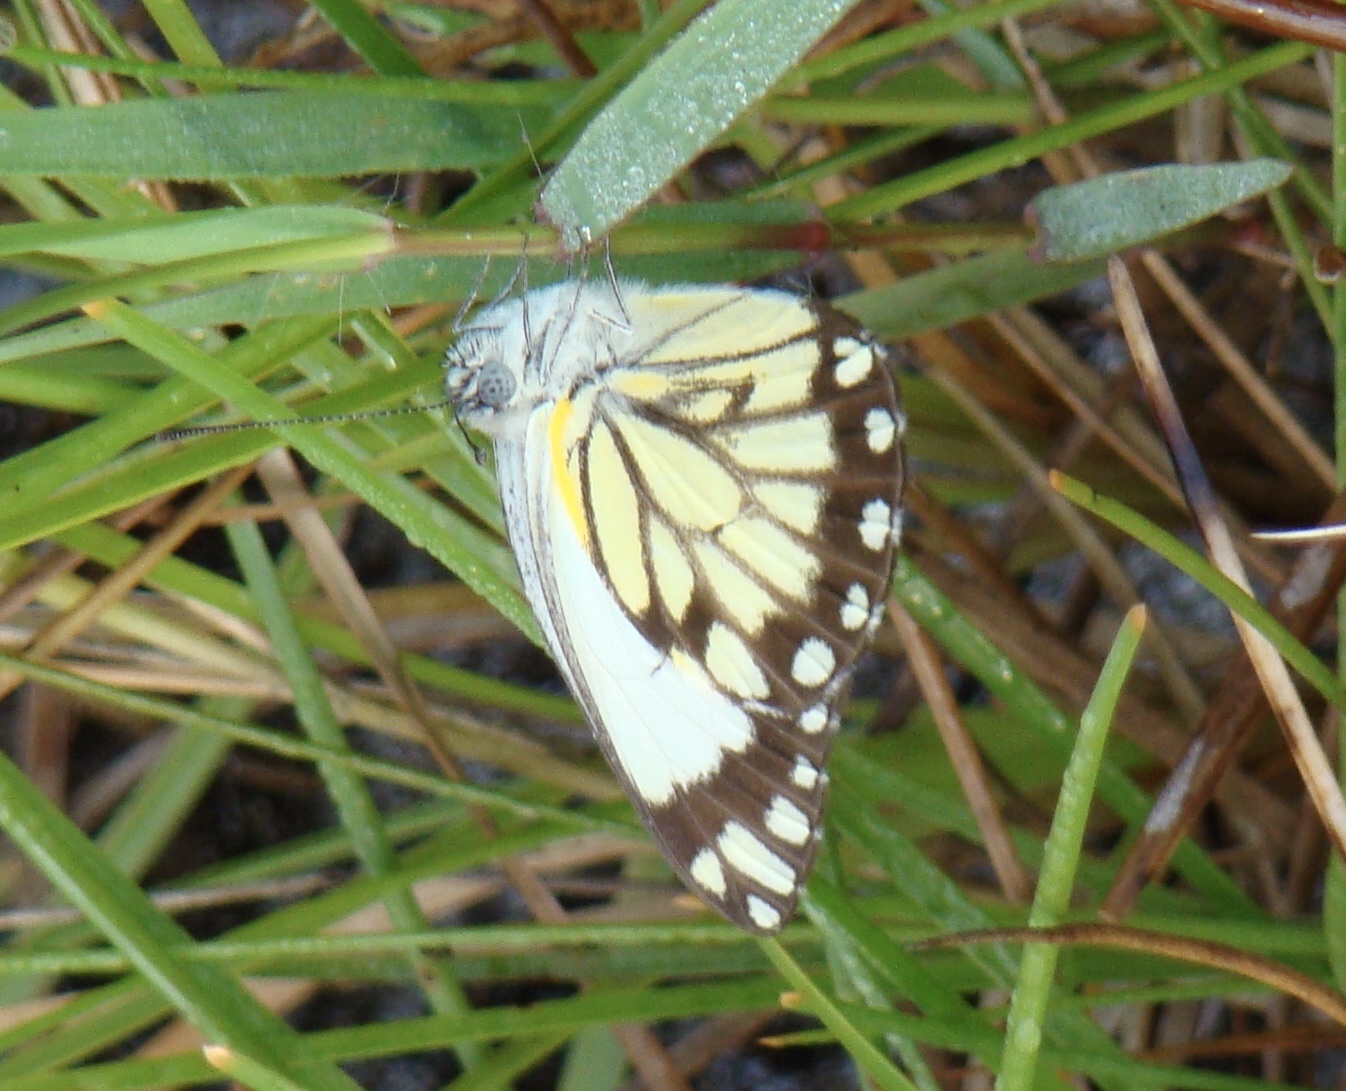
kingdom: Animalia
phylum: Arthropoda
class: Insecta
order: Lepidoptera
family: Pieridae
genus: Belenois
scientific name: Belenois creona
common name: African caper white
